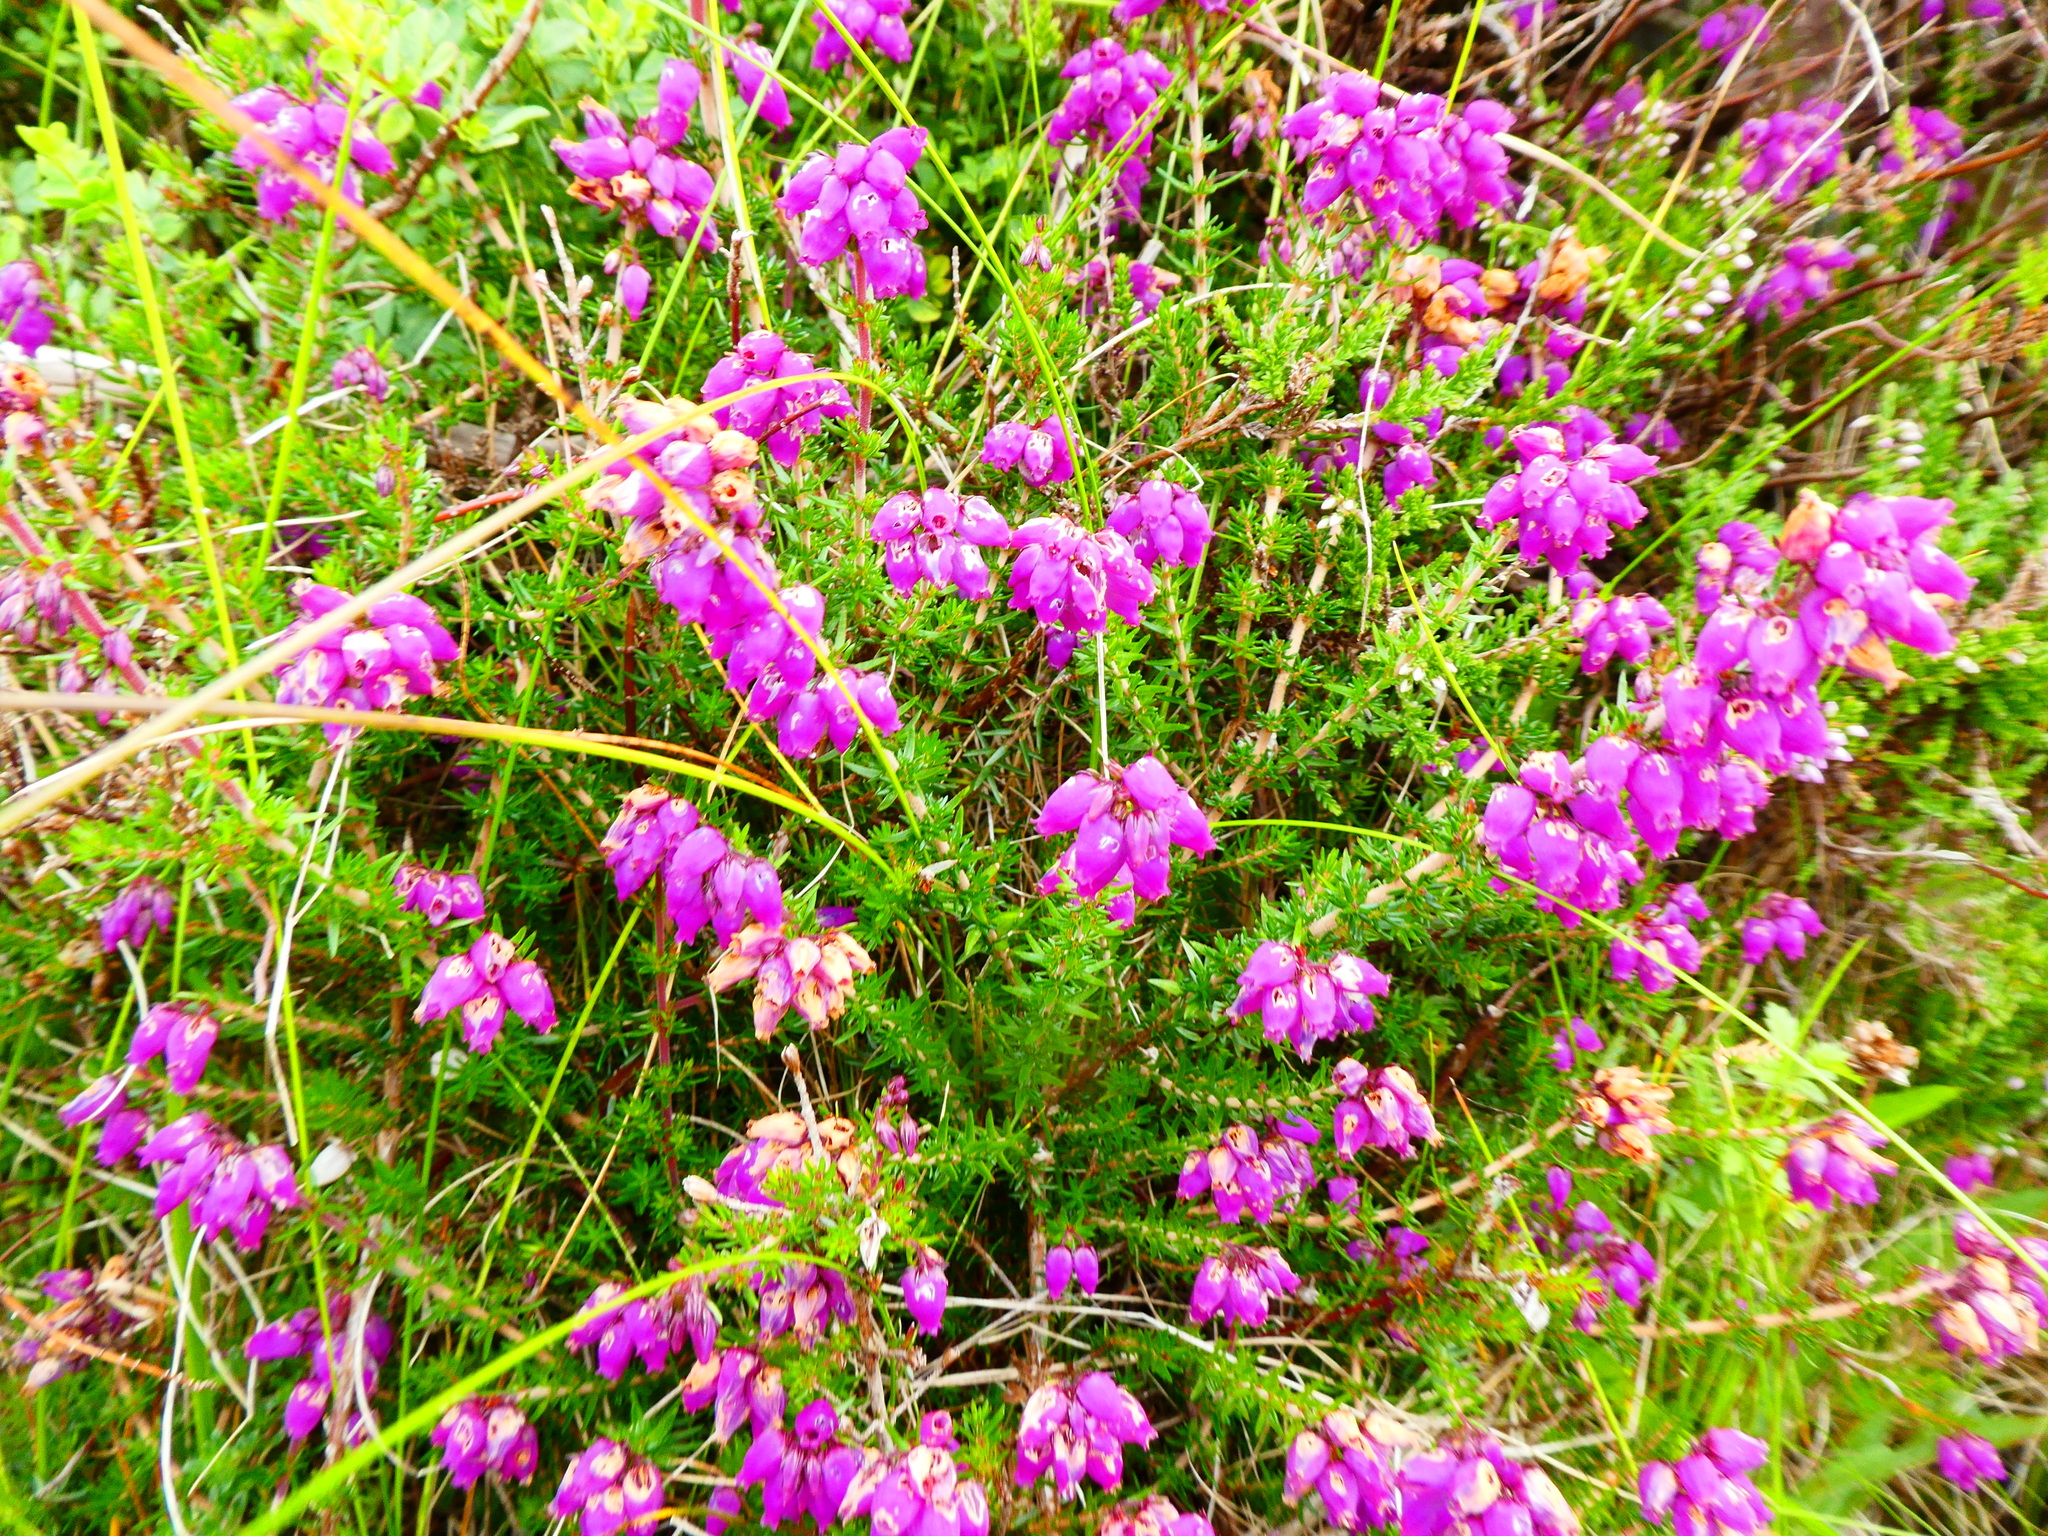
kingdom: Plantae
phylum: Tracheophyta
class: Magnoliopsida
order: Ericales
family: Ericaceae
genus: Erica
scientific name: Erica cinerea
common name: Bell heather
